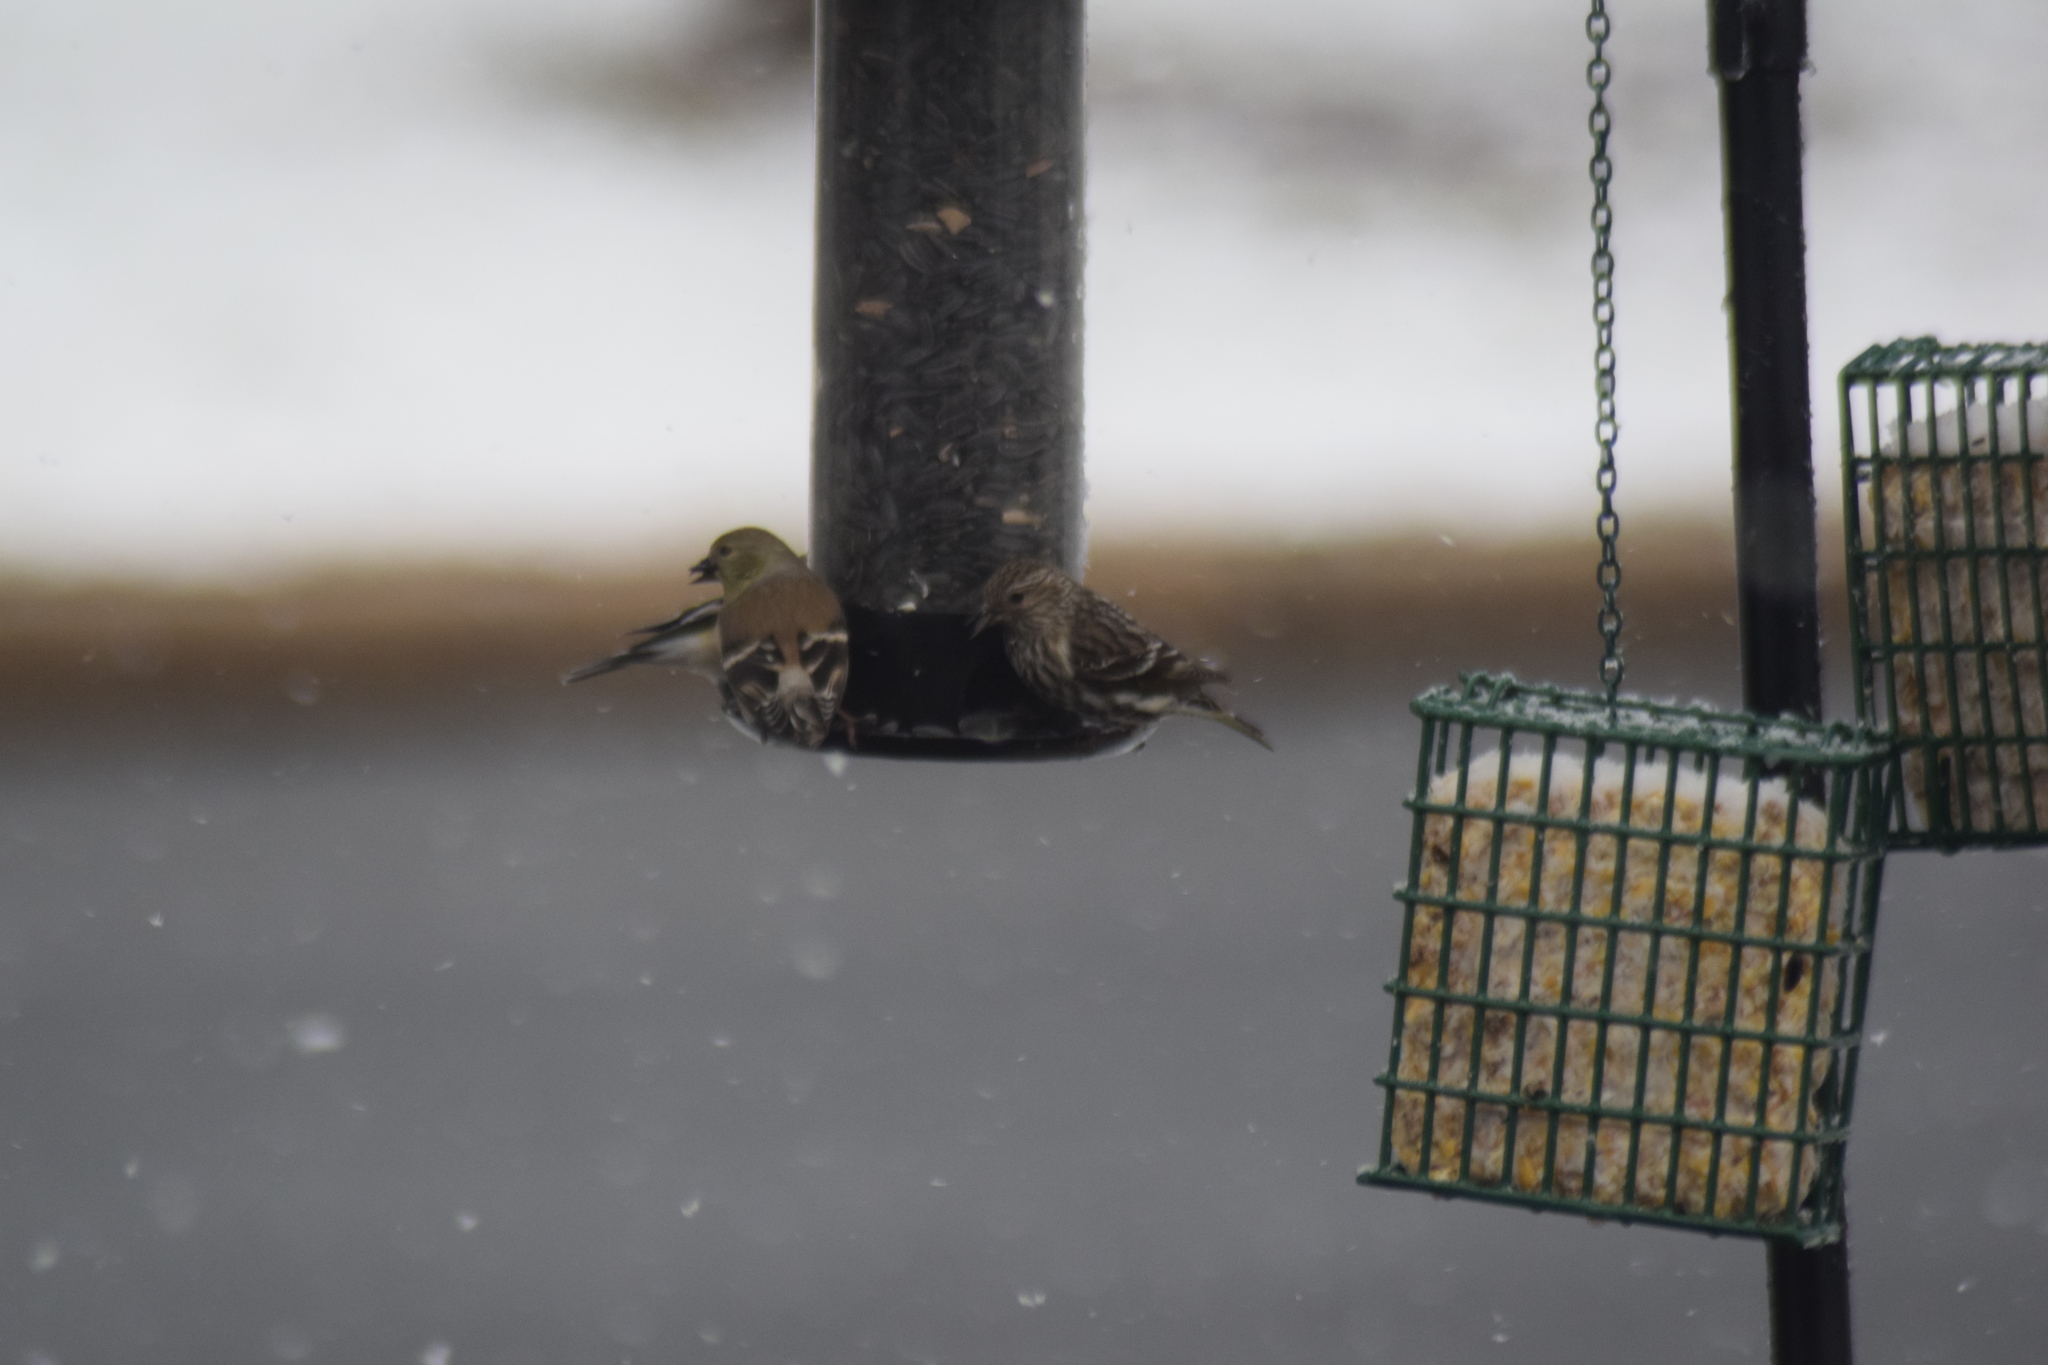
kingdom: Animalia
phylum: Chordata
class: Aves
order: Passeriformes
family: Fringillidae
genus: Spinus
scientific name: Spinus pinus
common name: Pine siskin
